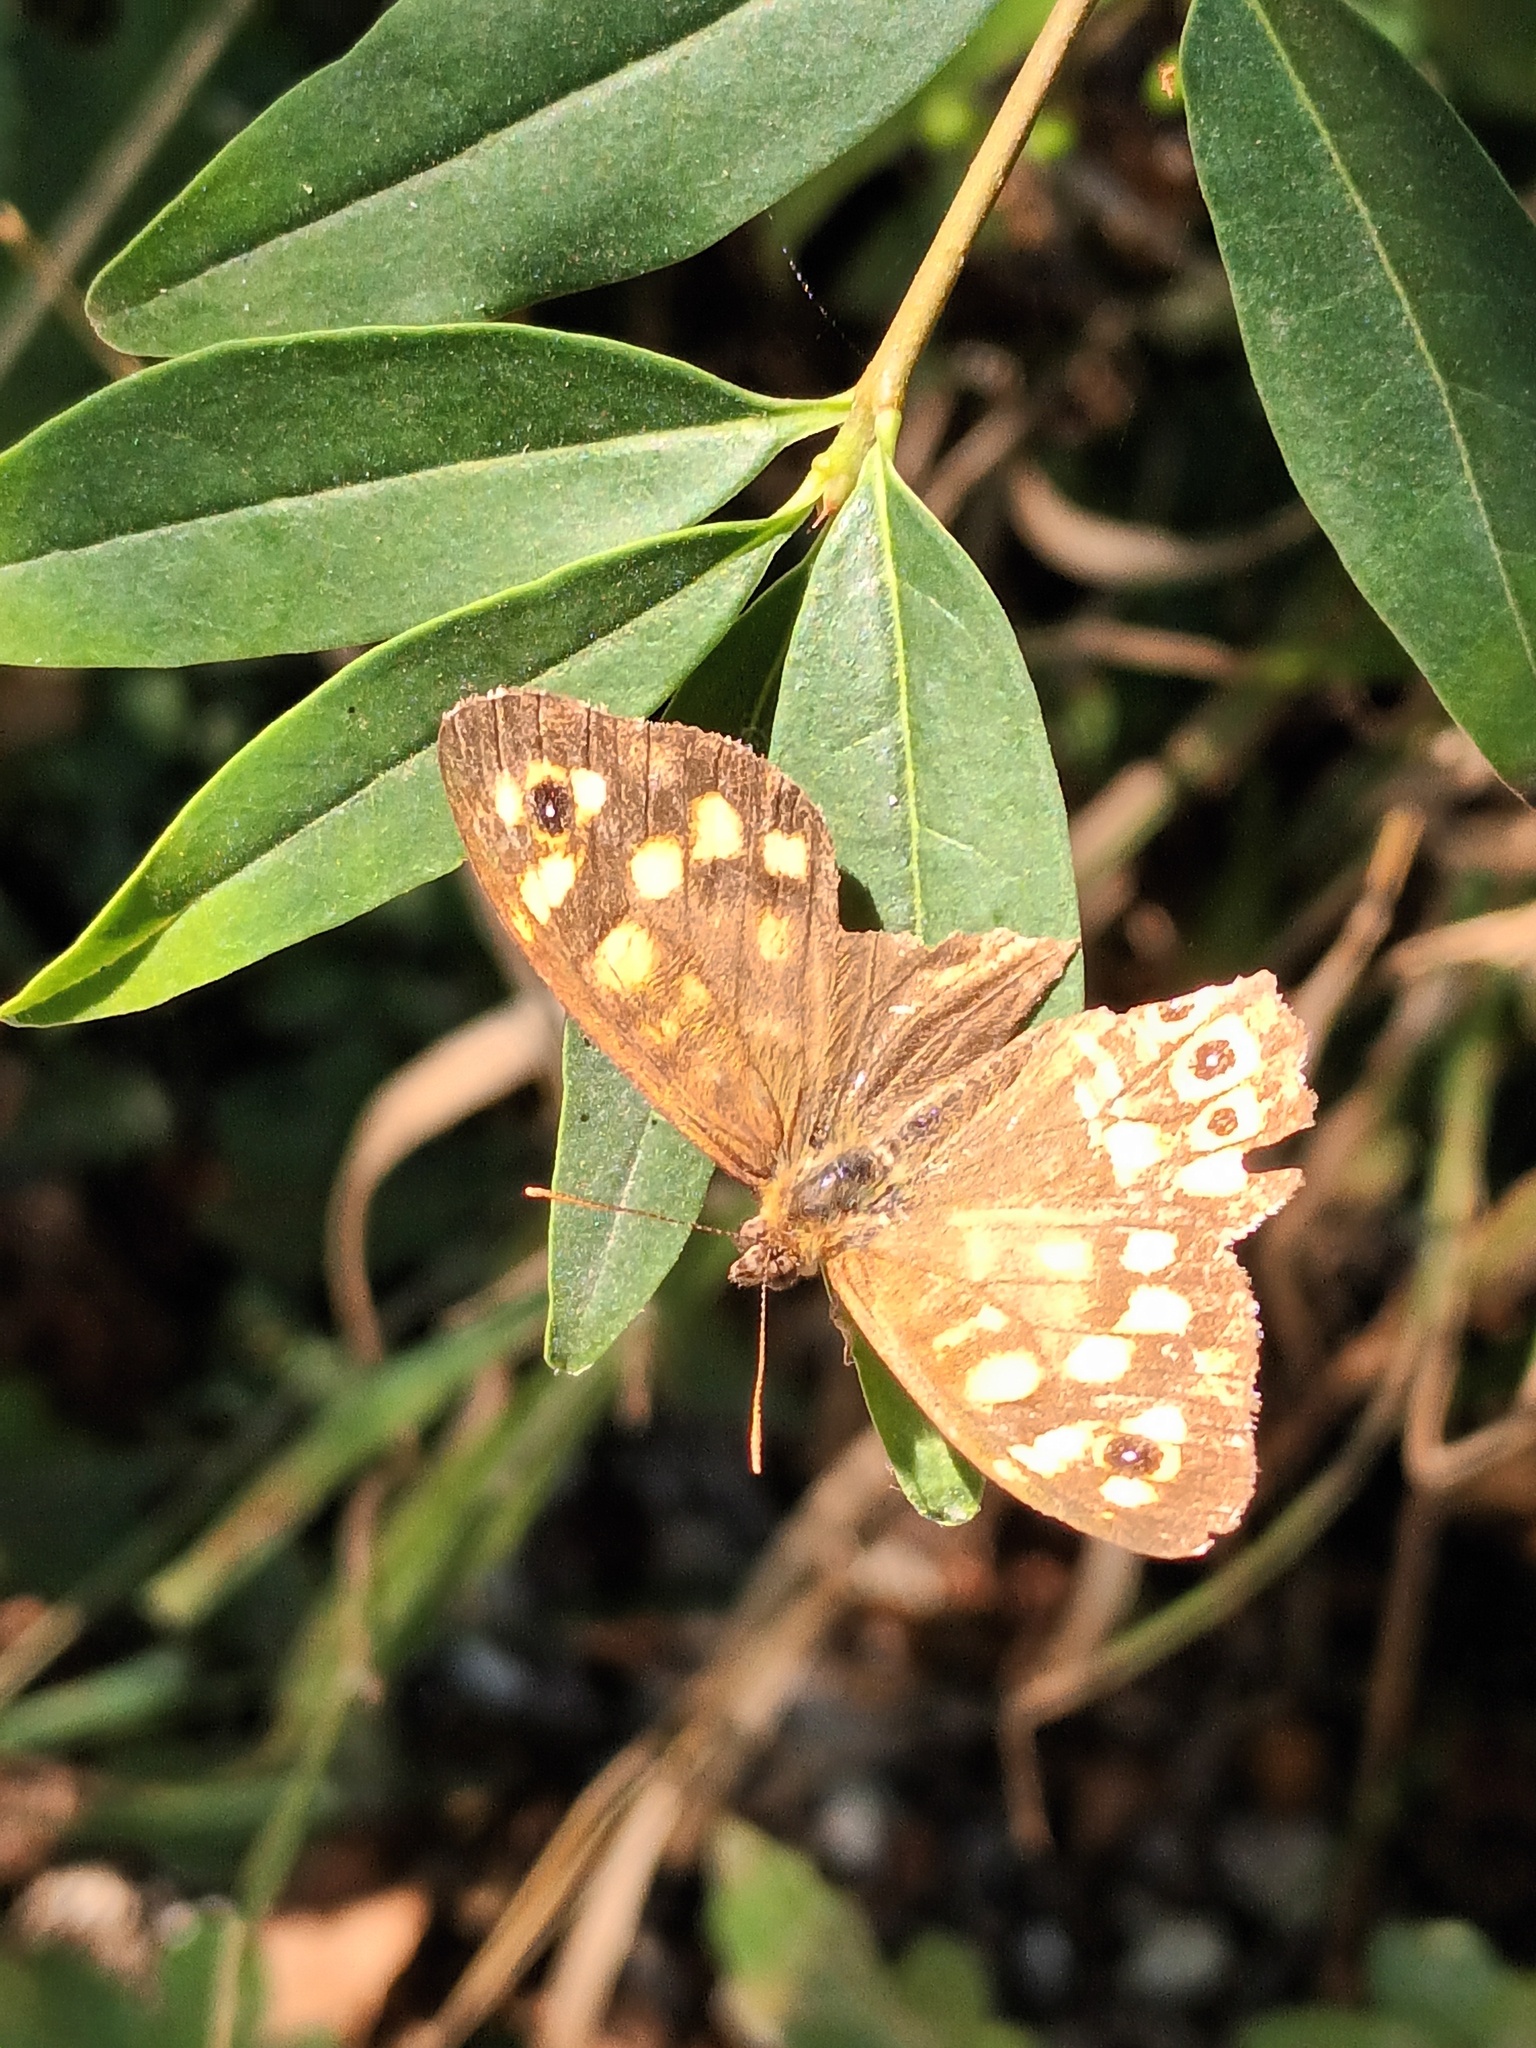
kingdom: Animalia
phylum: Arthropoda
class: Insecta
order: Lepidoptera
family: Nymphalidae
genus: Pararge
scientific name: Pararge aegeria
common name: Speckled wood
